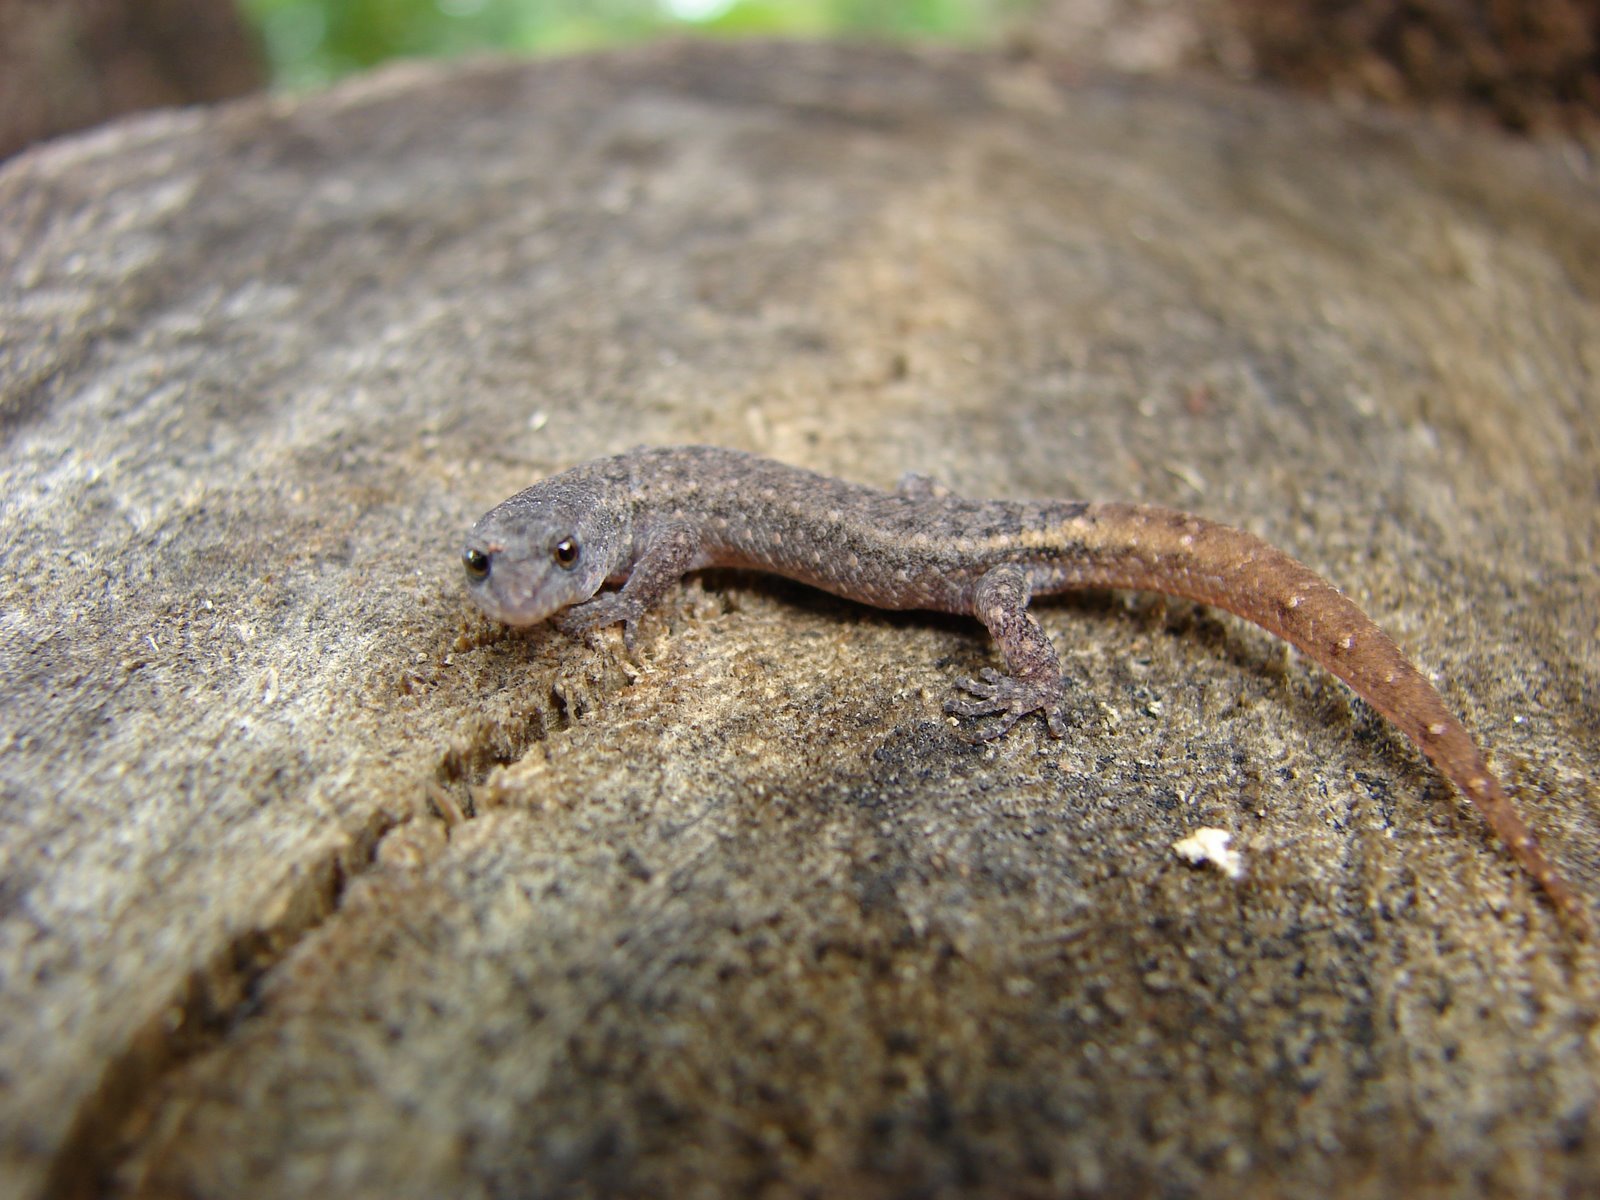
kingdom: Animalia
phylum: Chordata
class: Squamata
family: Sphaerodactylidae
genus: Coleodactylus
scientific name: Coleodactylus brachystoma
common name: Goias gecko
